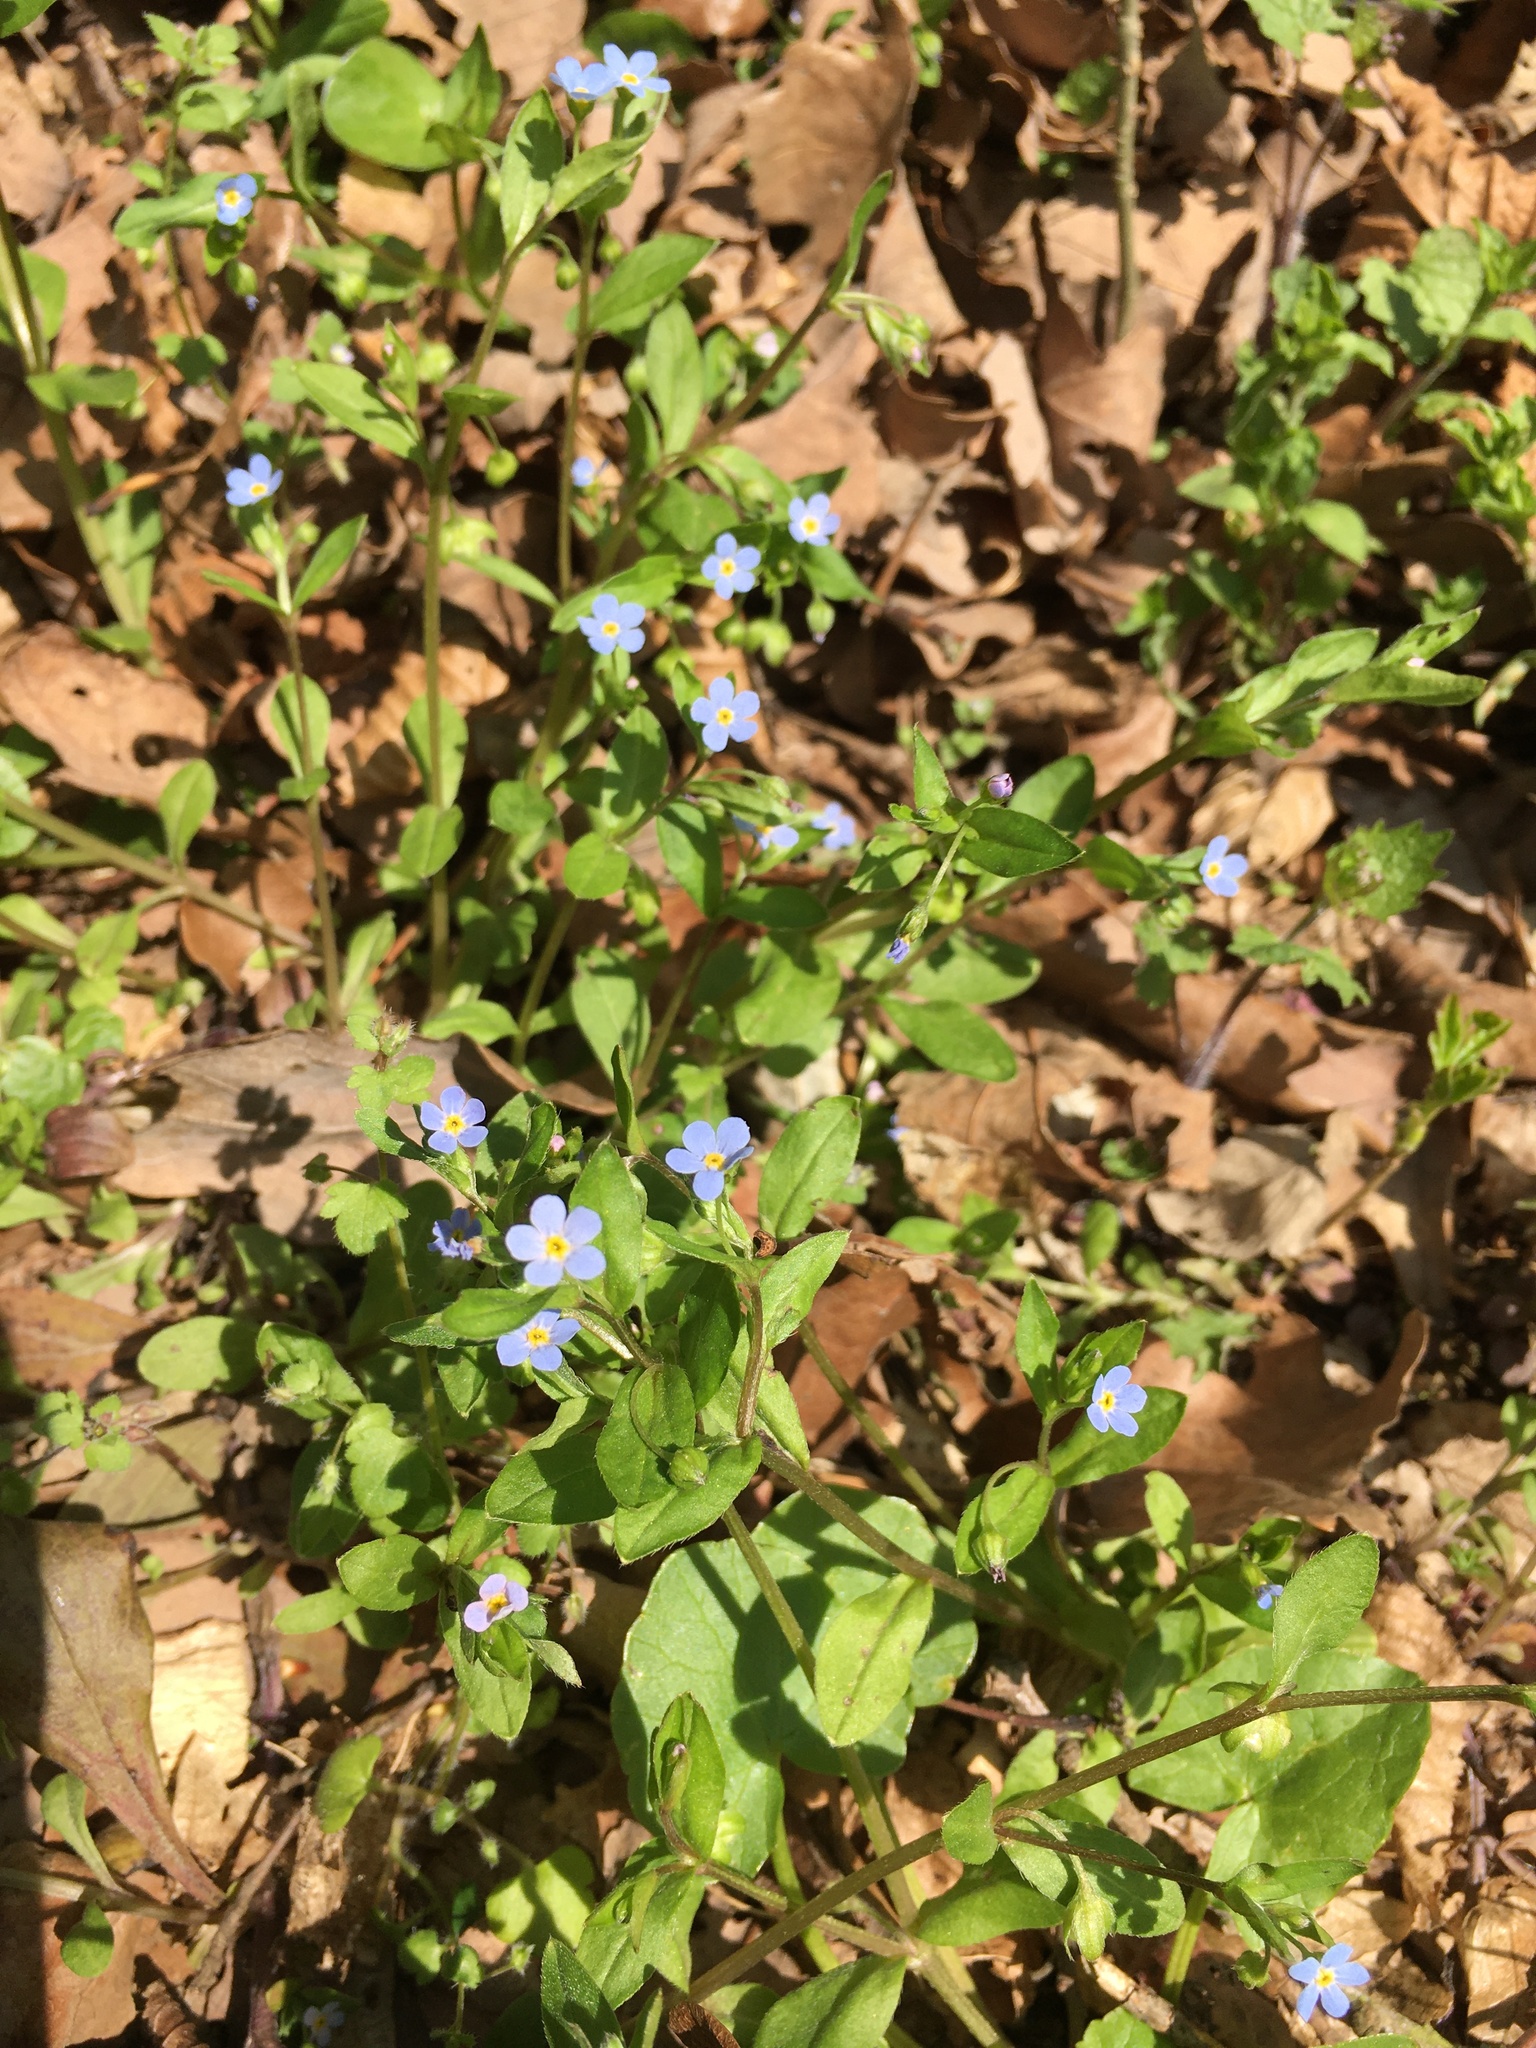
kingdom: Plantae
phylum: Tracheophyta
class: Magnoliopsida
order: Boraginales
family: Boraginaceae
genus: Memoremea
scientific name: Memoremea scorpioides
